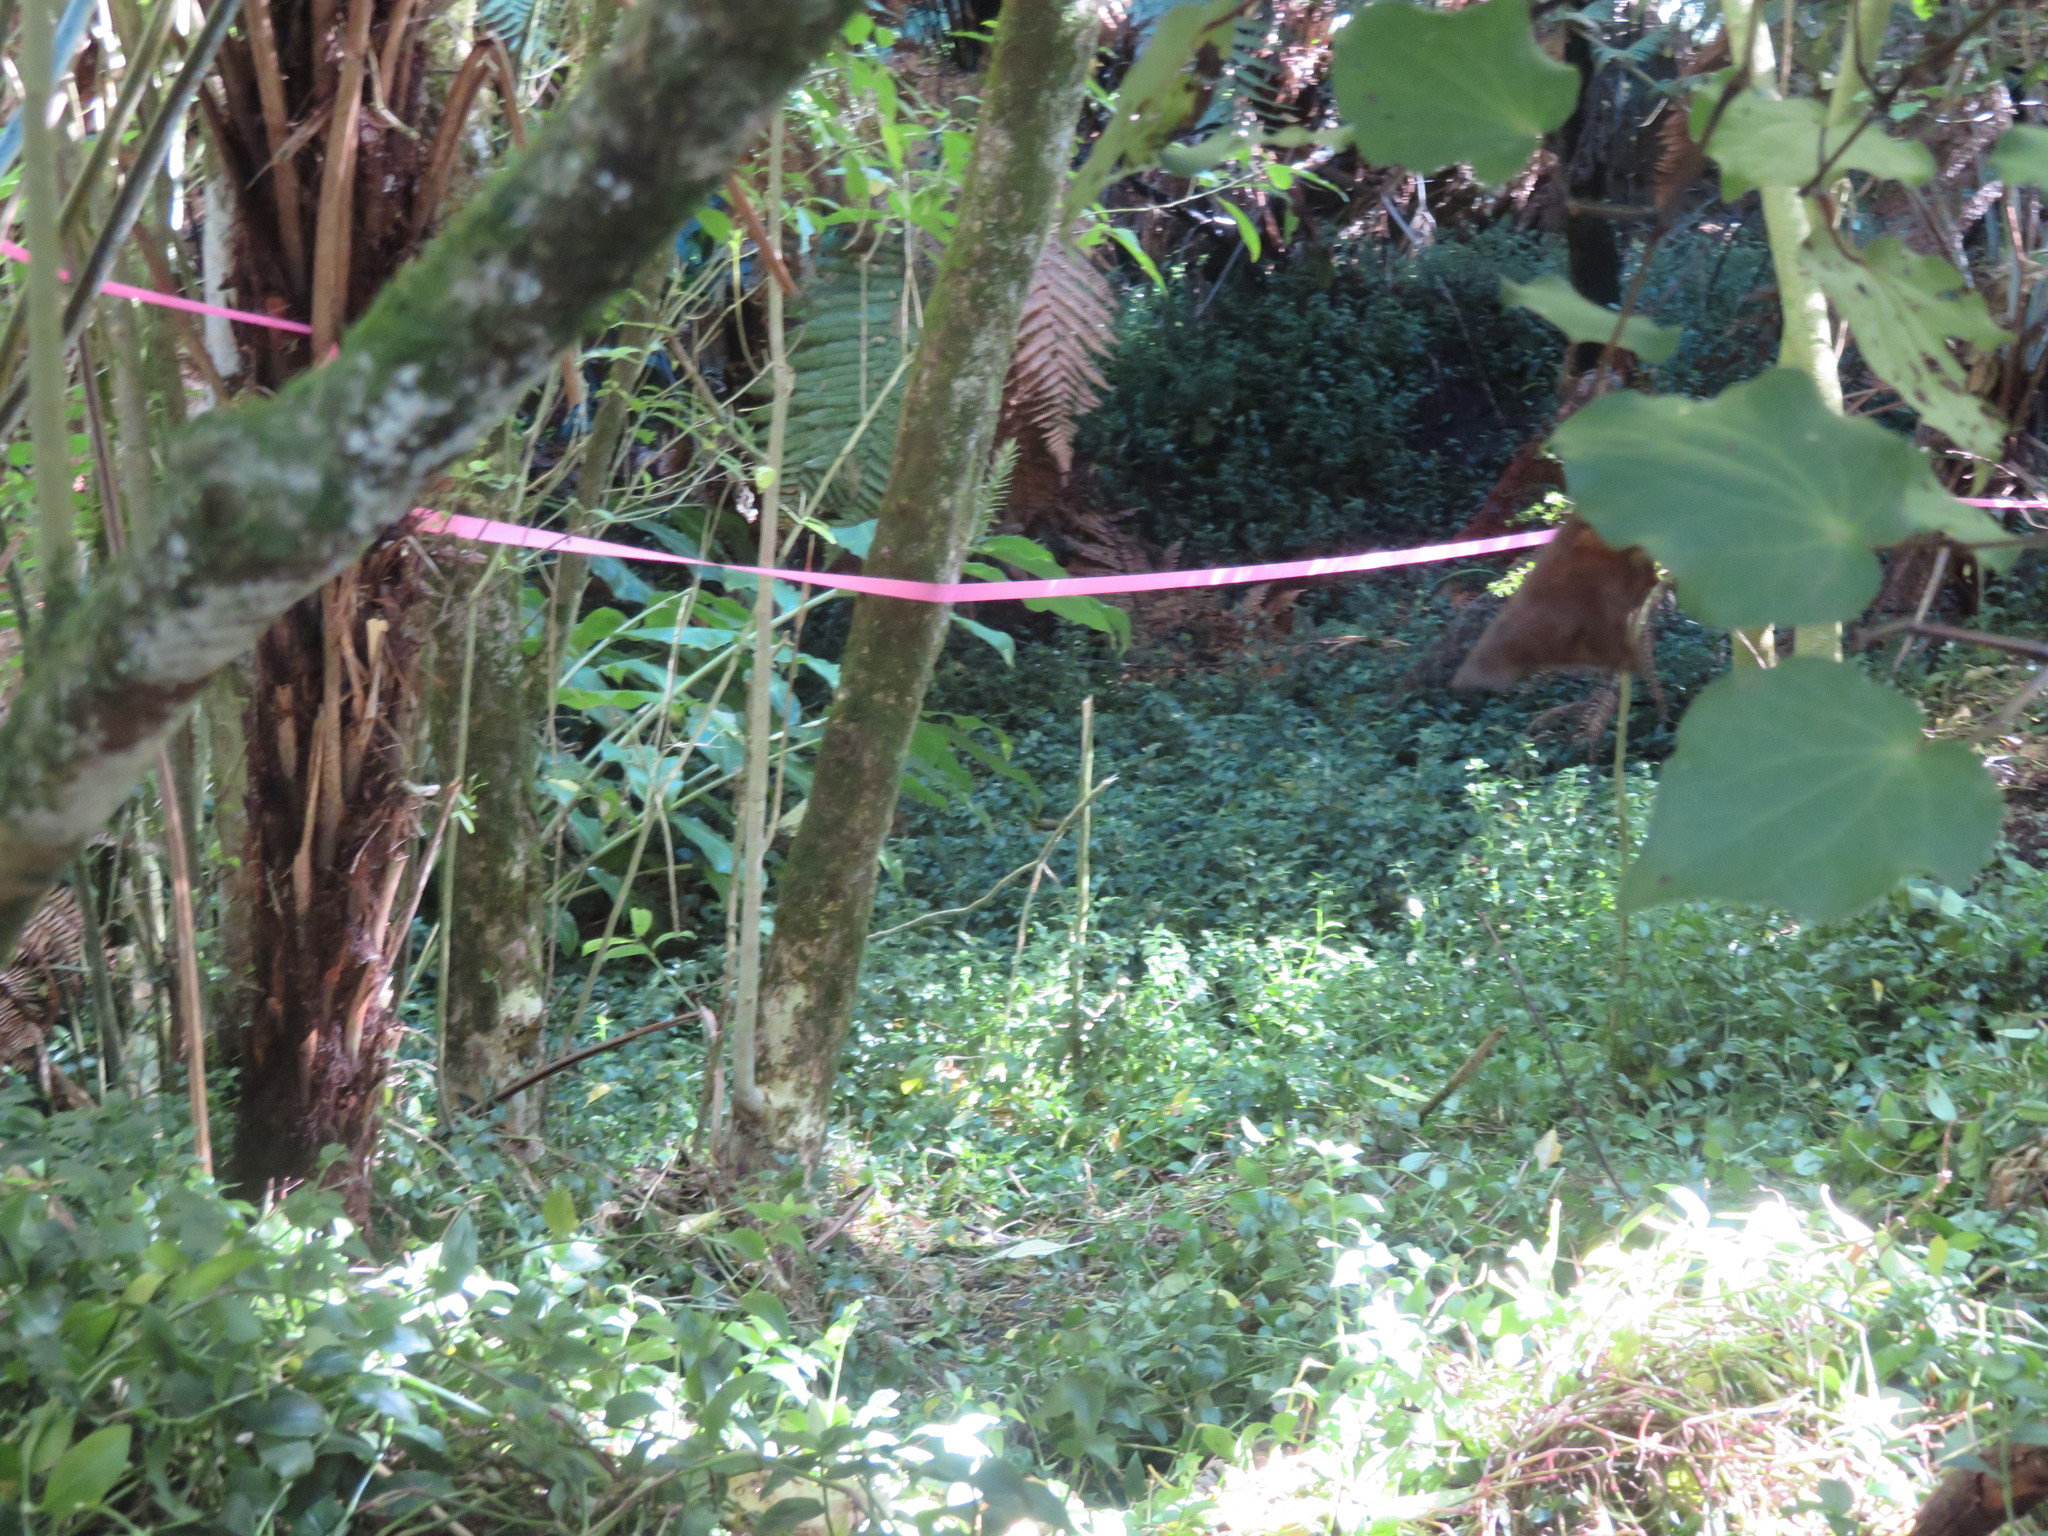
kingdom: Plantae
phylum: Tracheophyta
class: Liliopsida
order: Commelinales
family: Commelinaceae
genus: Tradescantia
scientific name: Tradescantia fluminensis
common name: Wandering-jew
